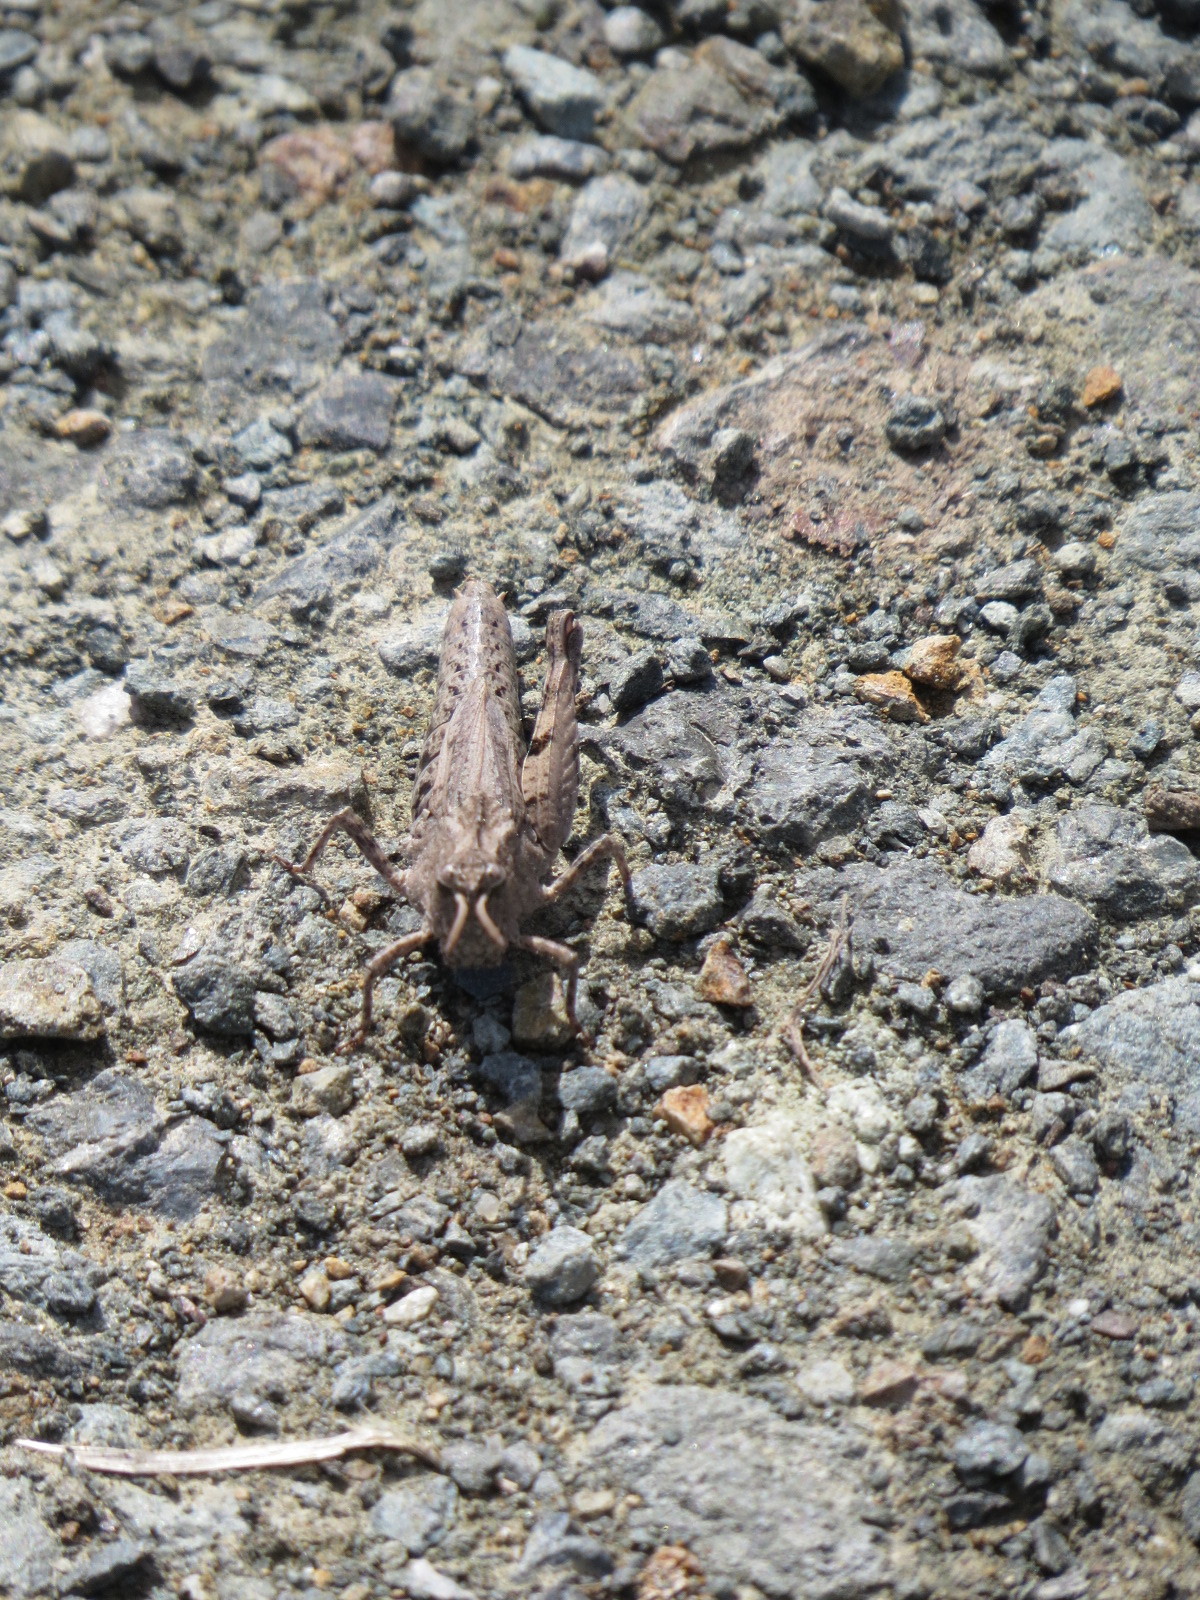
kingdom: Animalia
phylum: Arthropoda
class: Insecta
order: Orthoptera
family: Acrididae
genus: Chimarocephala
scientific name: Chimarocephala pacifica
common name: Painted meadow grasshopper
